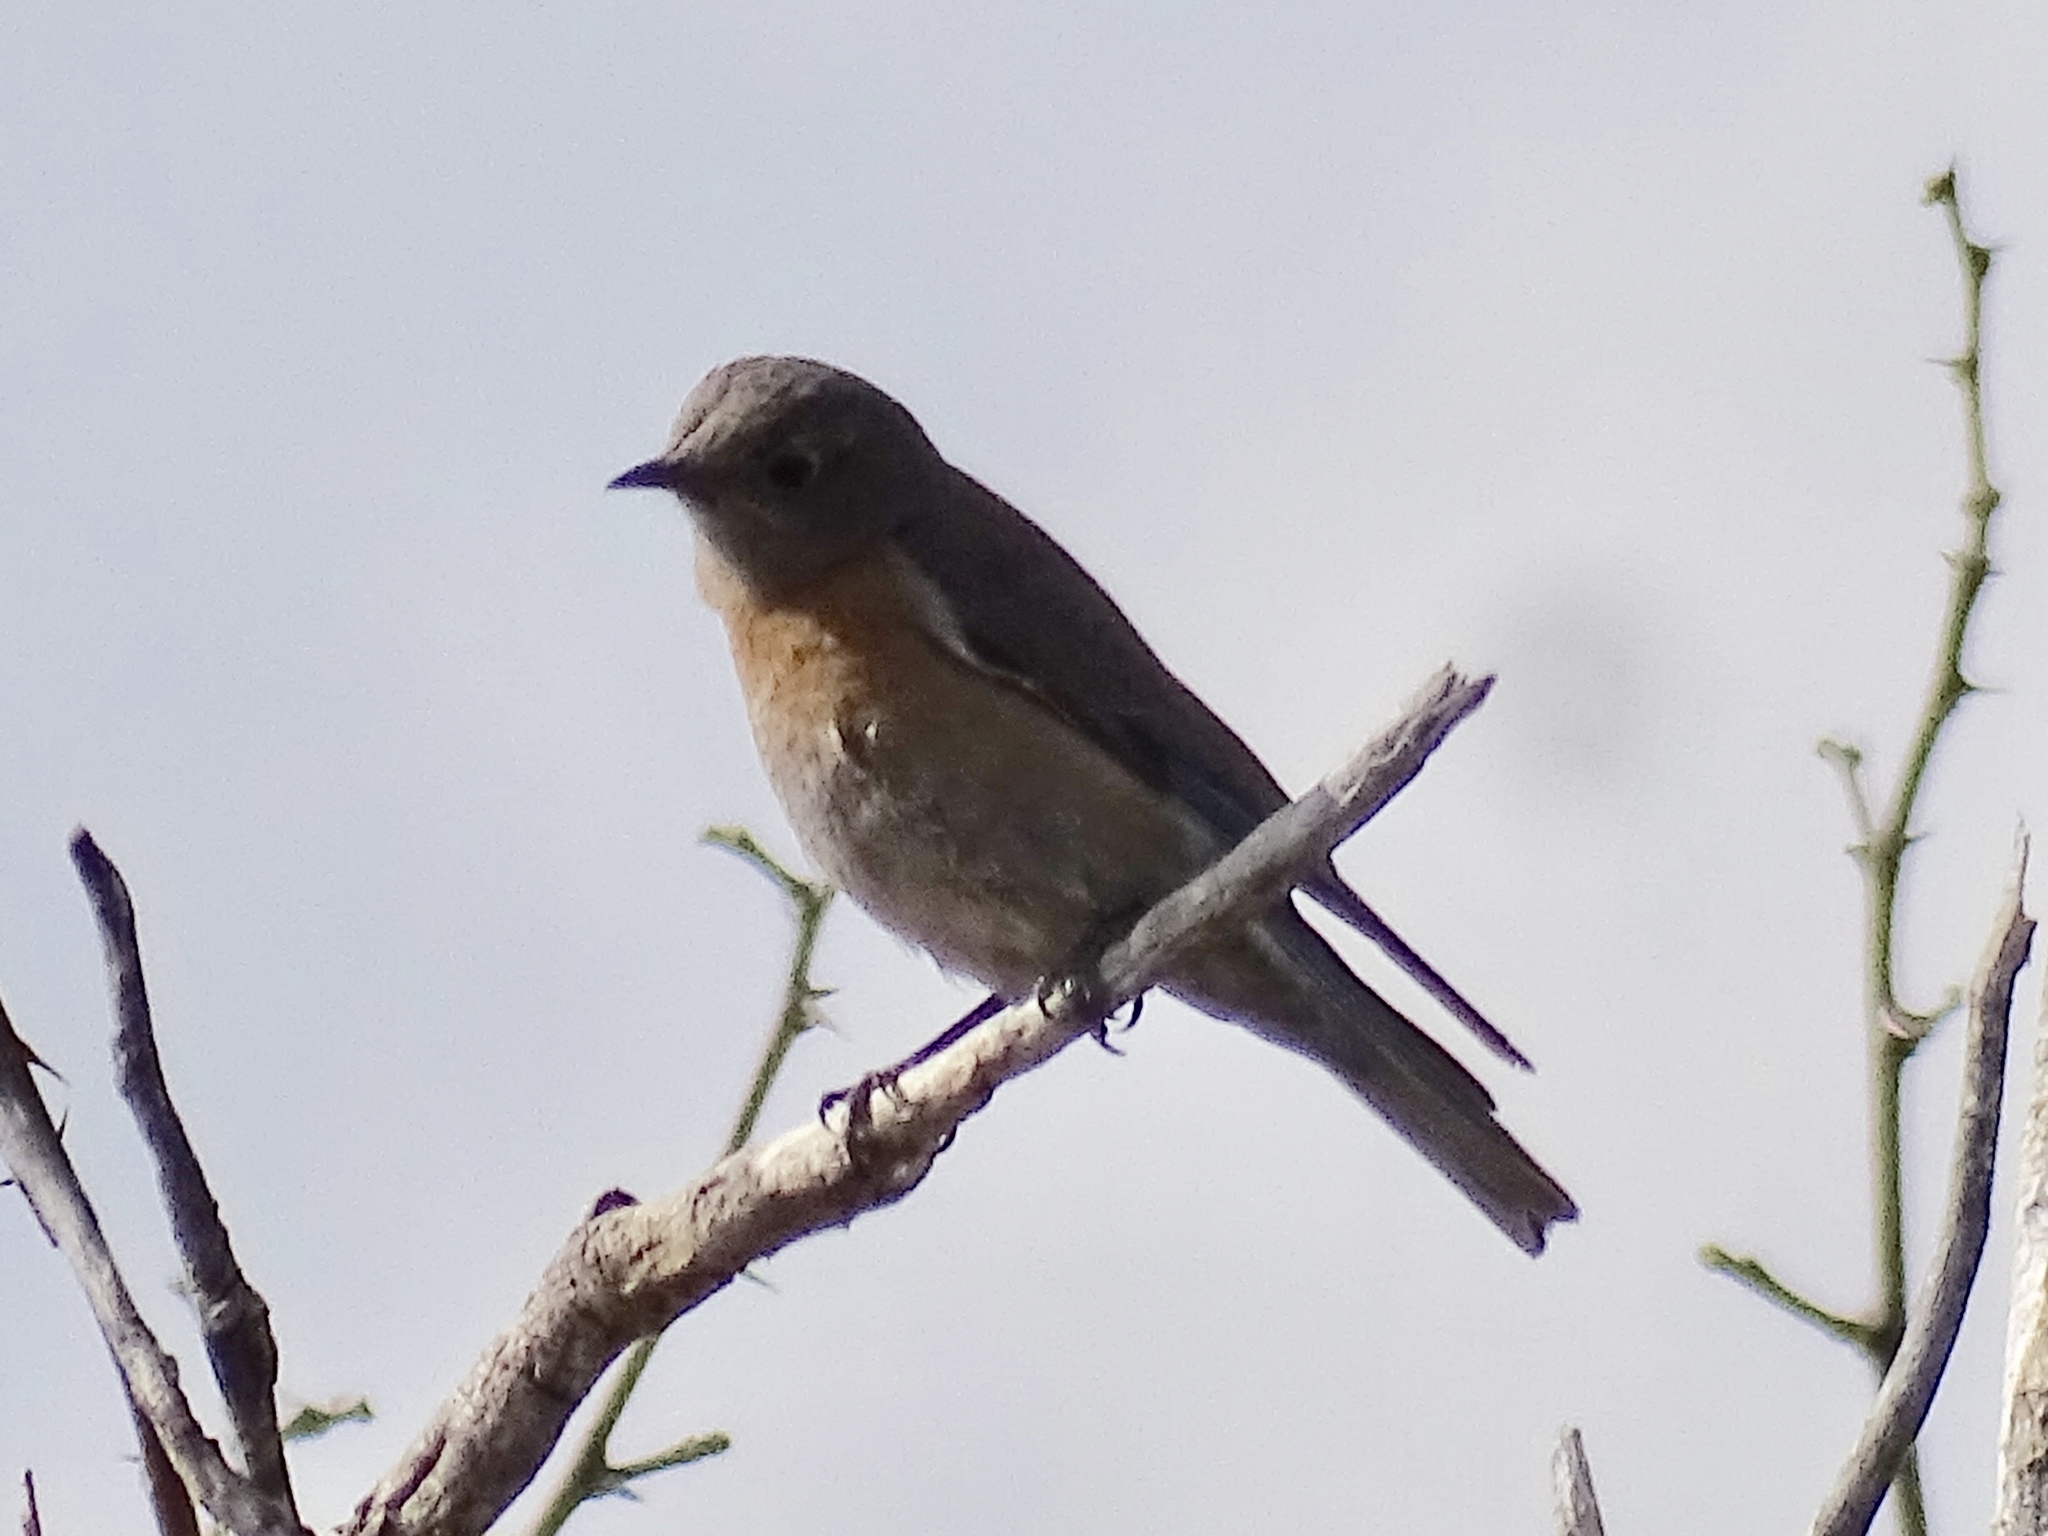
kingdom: Animalia
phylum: Chordata
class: Aves
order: Passeriformes
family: Turdidae
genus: Sialia
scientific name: Sialia mexicana
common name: Western bluebird
